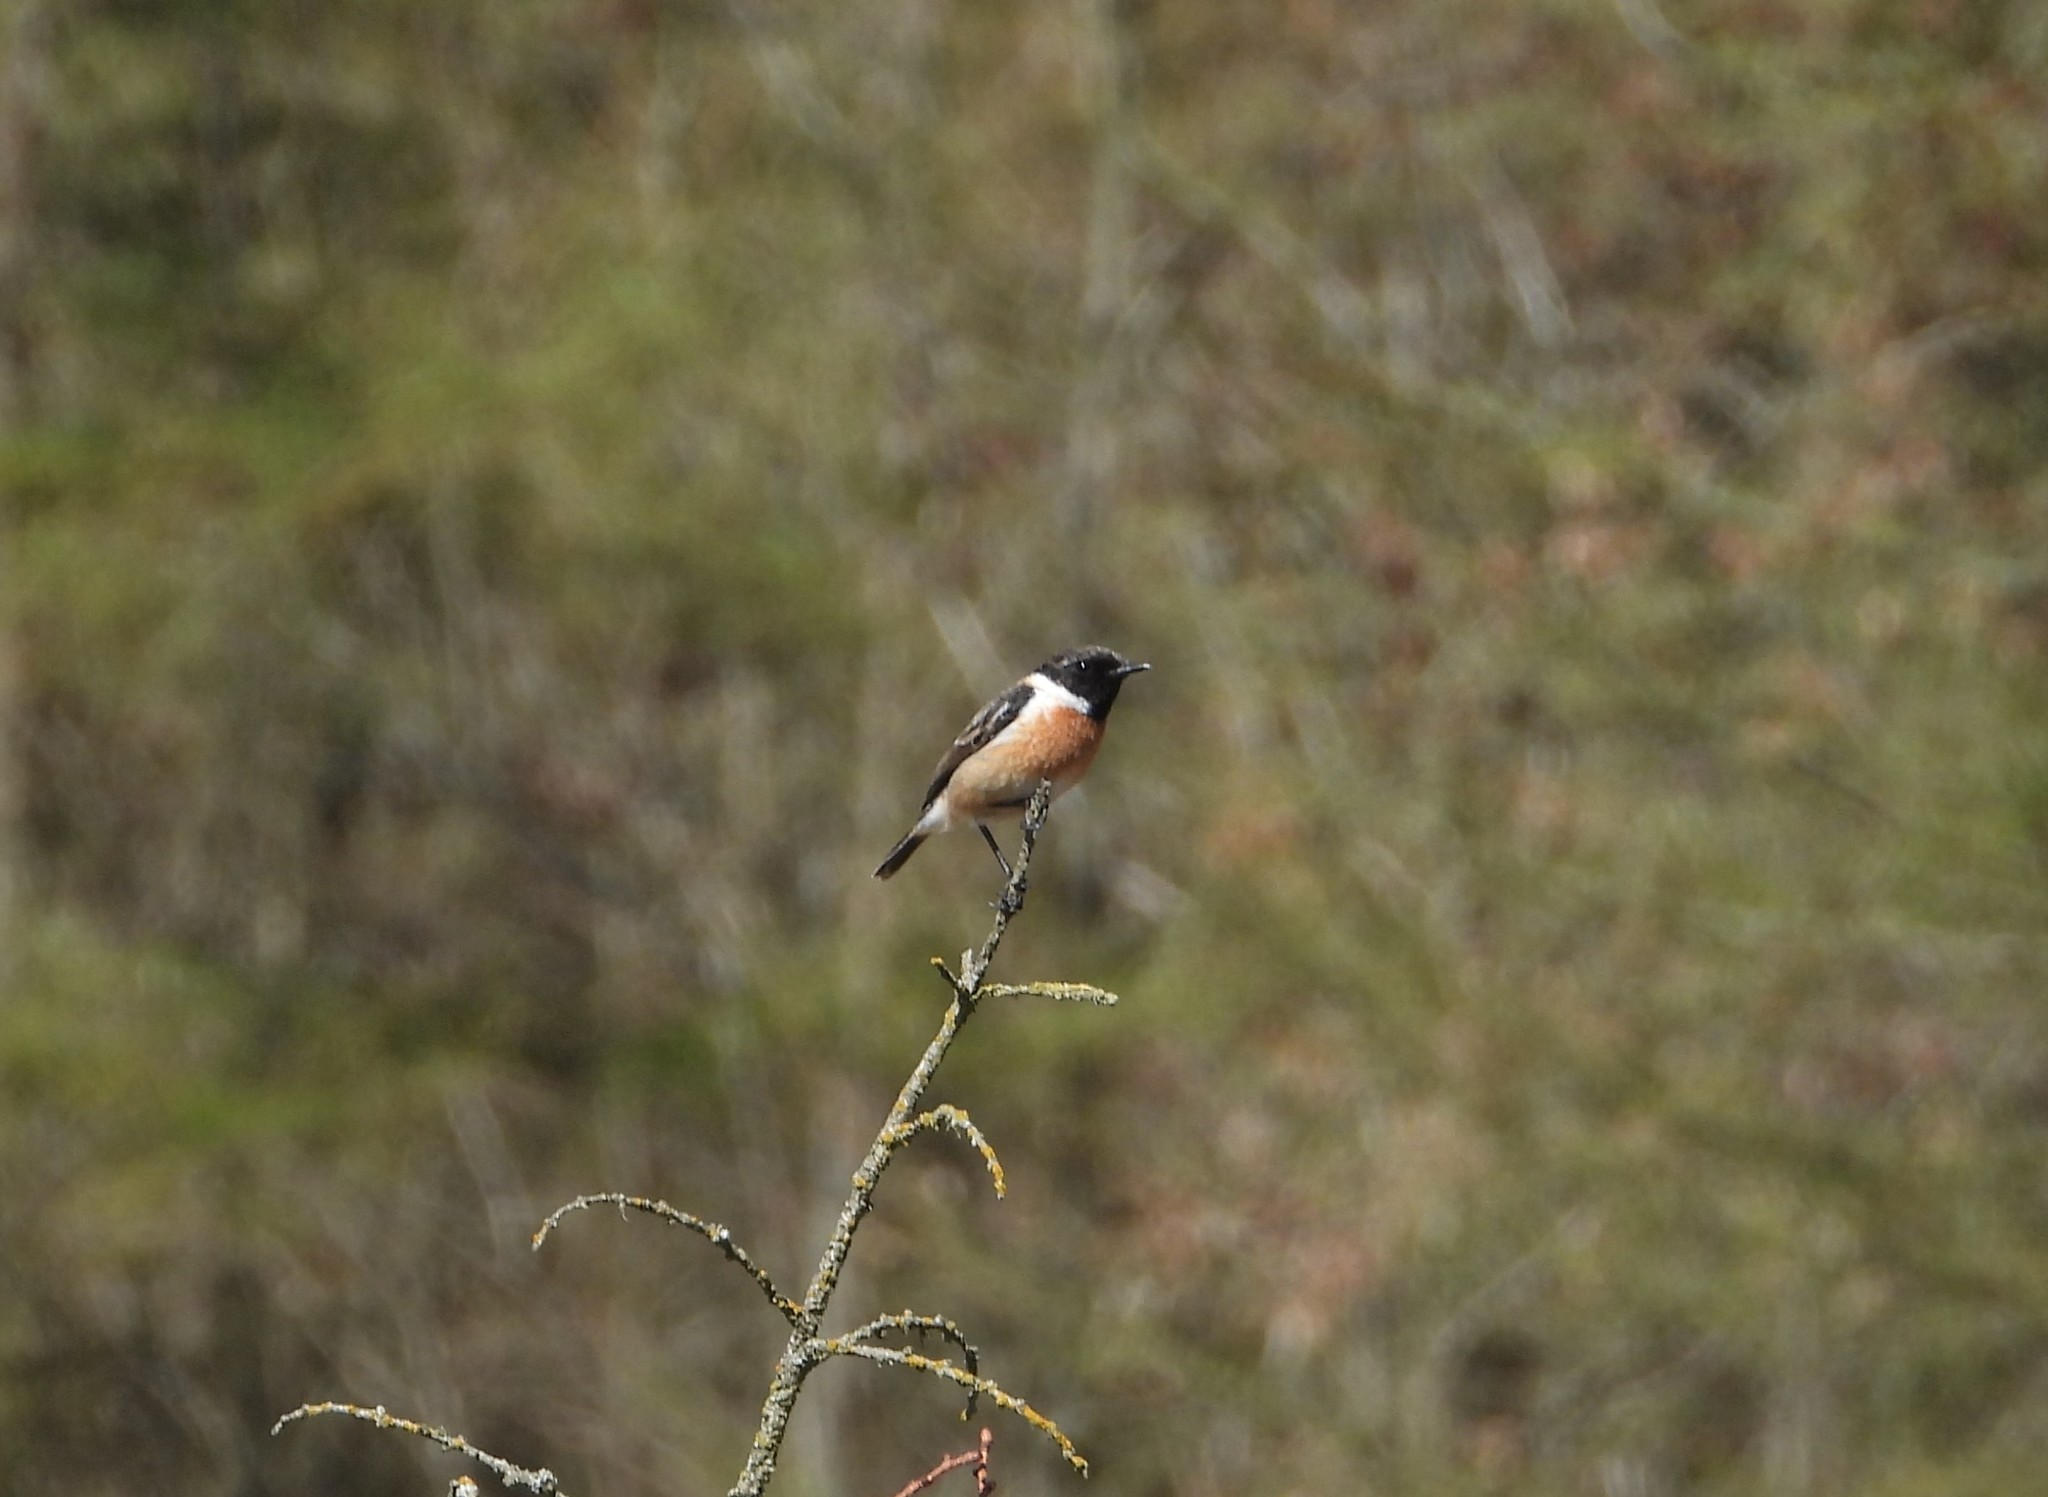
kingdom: Animalia
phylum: Chordata
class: Aves
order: Passeriformes
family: Muscicapidae
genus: Saxicola
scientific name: Saxicola rubicola
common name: European stonechat
